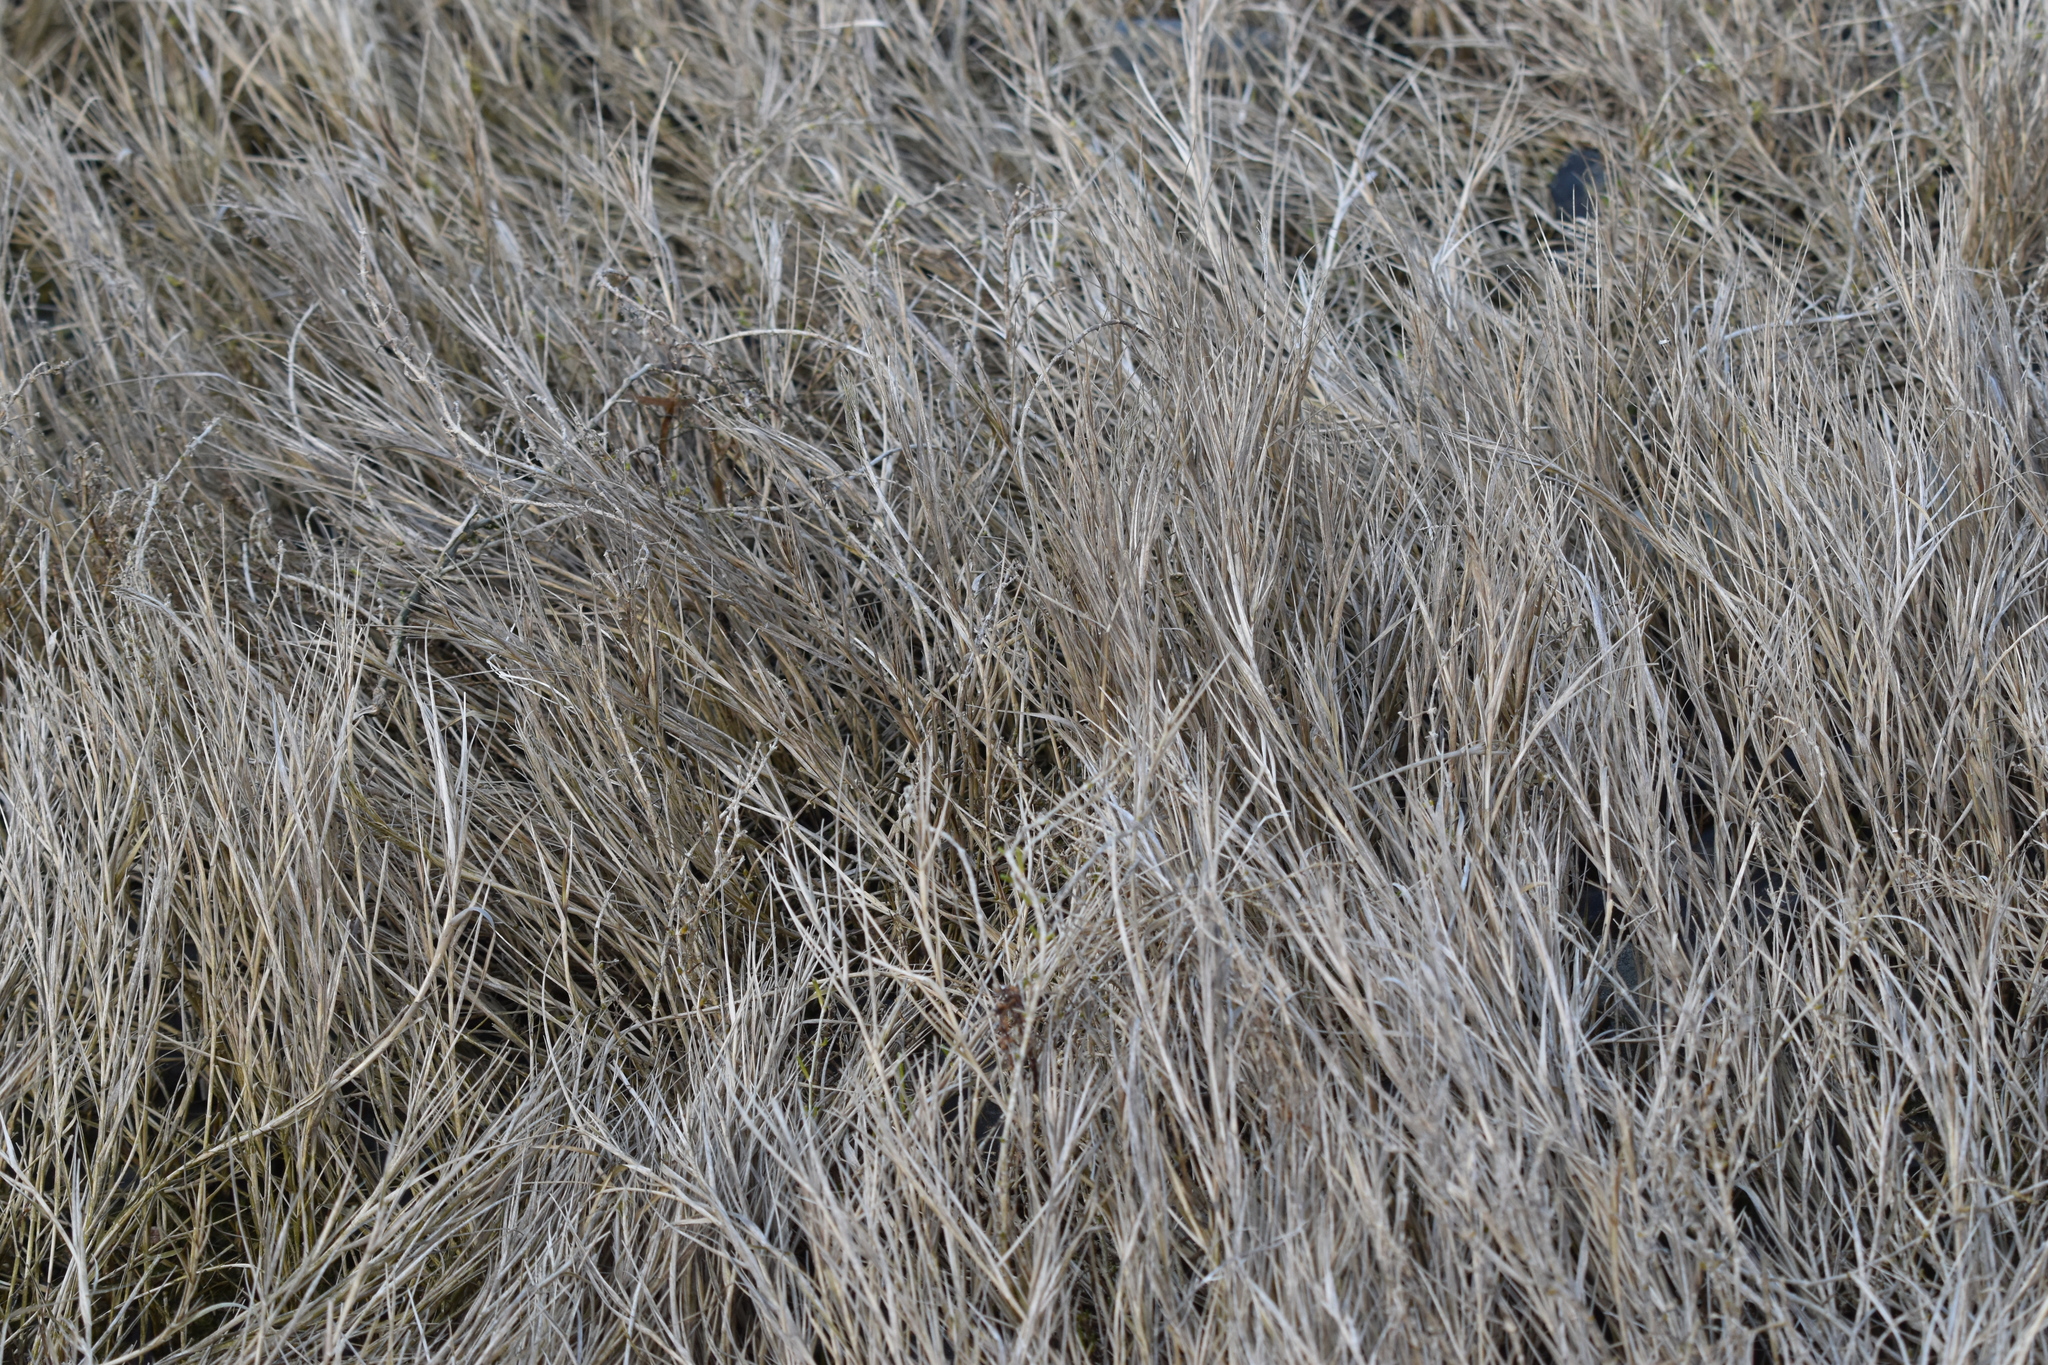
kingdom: Plantae
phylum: Tracheophyta
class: Liliopsida
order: Poales
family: Poaceae
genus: Distichlis
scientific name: Distichlis spicata
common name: Saltgrass
